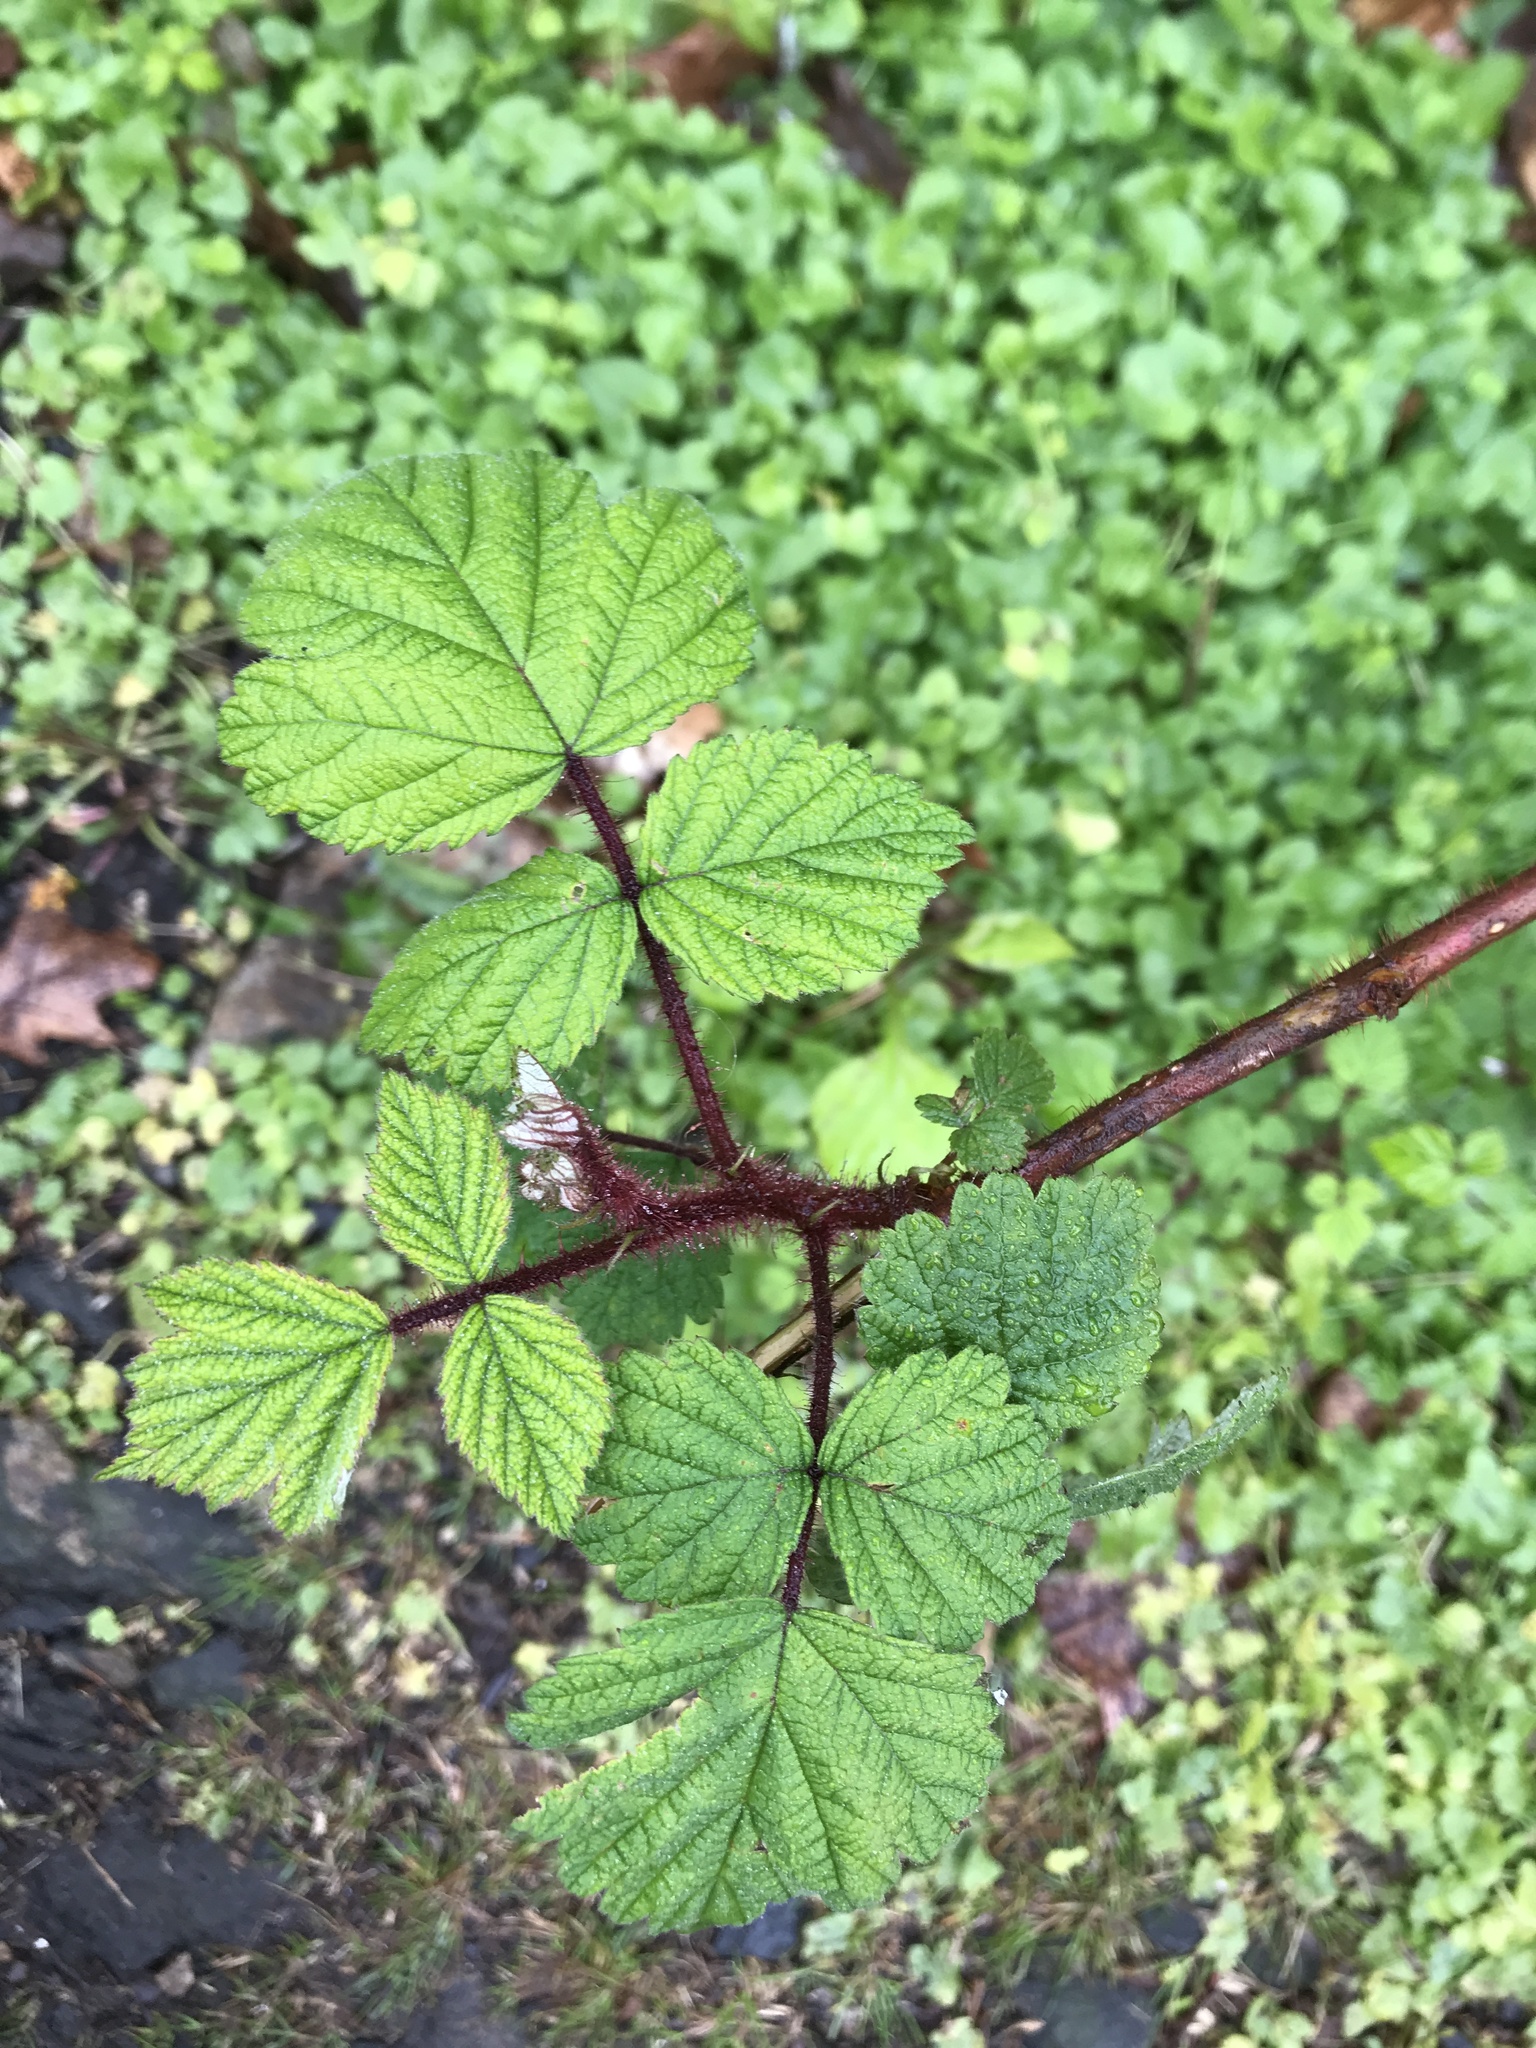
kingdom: Plantae
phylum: Tracheophyta
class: Magnoliopsida
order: Rosales
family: Rosaceae
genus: Rubus
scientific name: Rubus phoenicolasius
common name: Japanese wineberry
